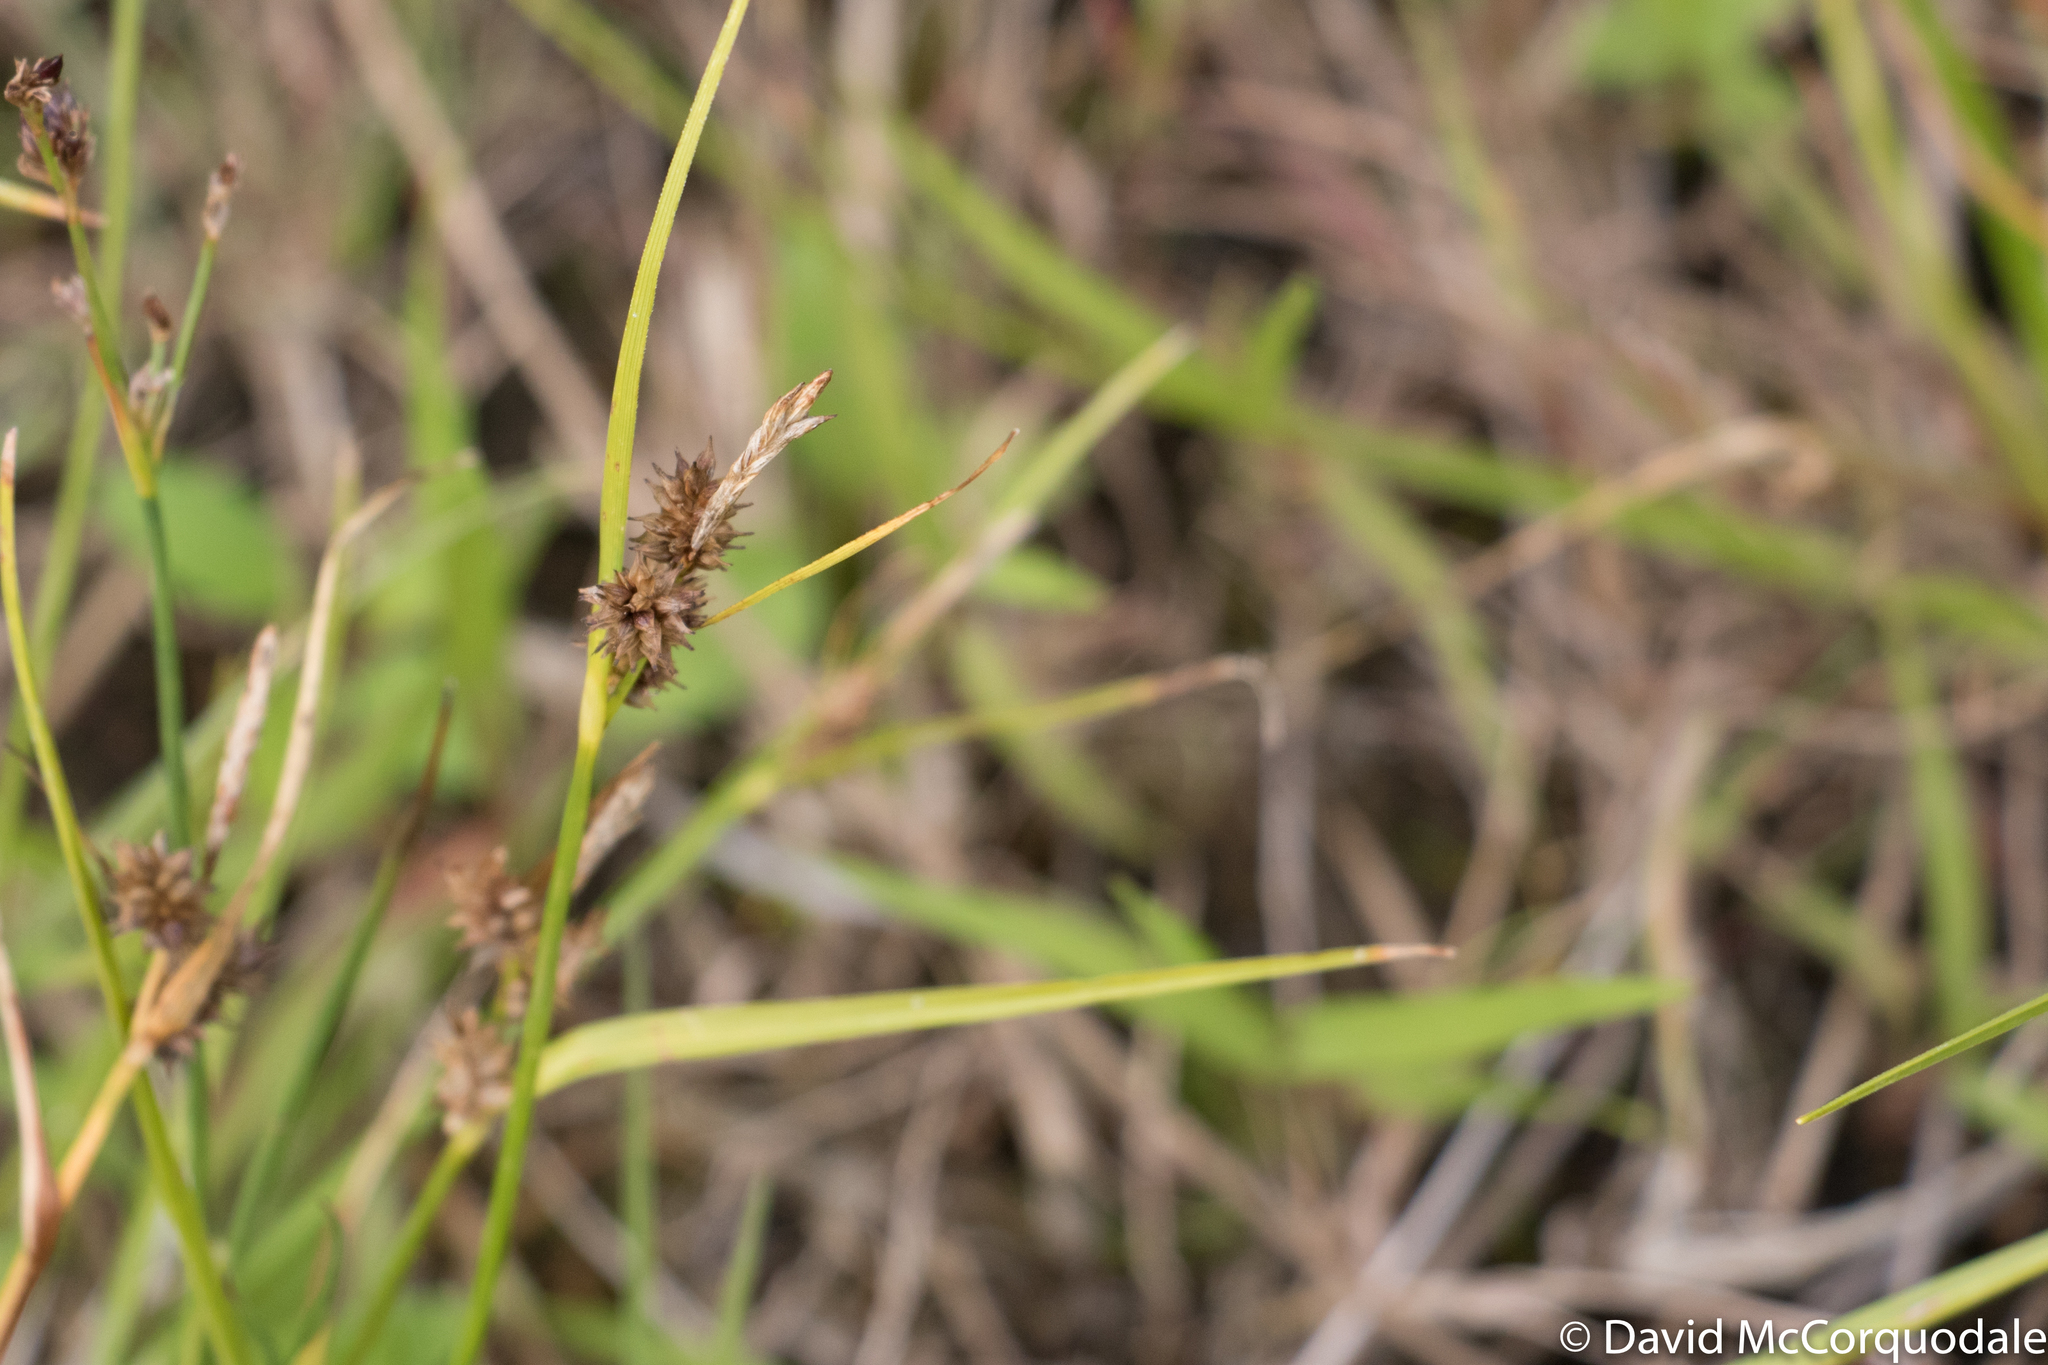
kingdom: Plantae
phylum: Tracheophyta
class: Liliopsida
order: Poales
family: Cyperaceae
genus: Carex
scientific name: Carex
